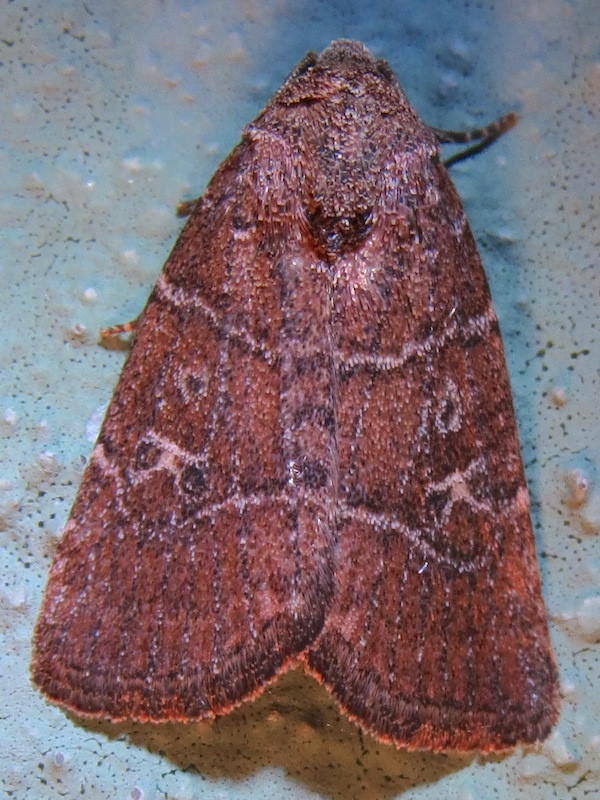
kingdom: Animalia
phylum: Arthropoda
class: Insecta
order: Lepidoptera
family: Noctuidae
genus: Elaphria
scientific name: Elaphria grata
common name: Grateful midget moth
